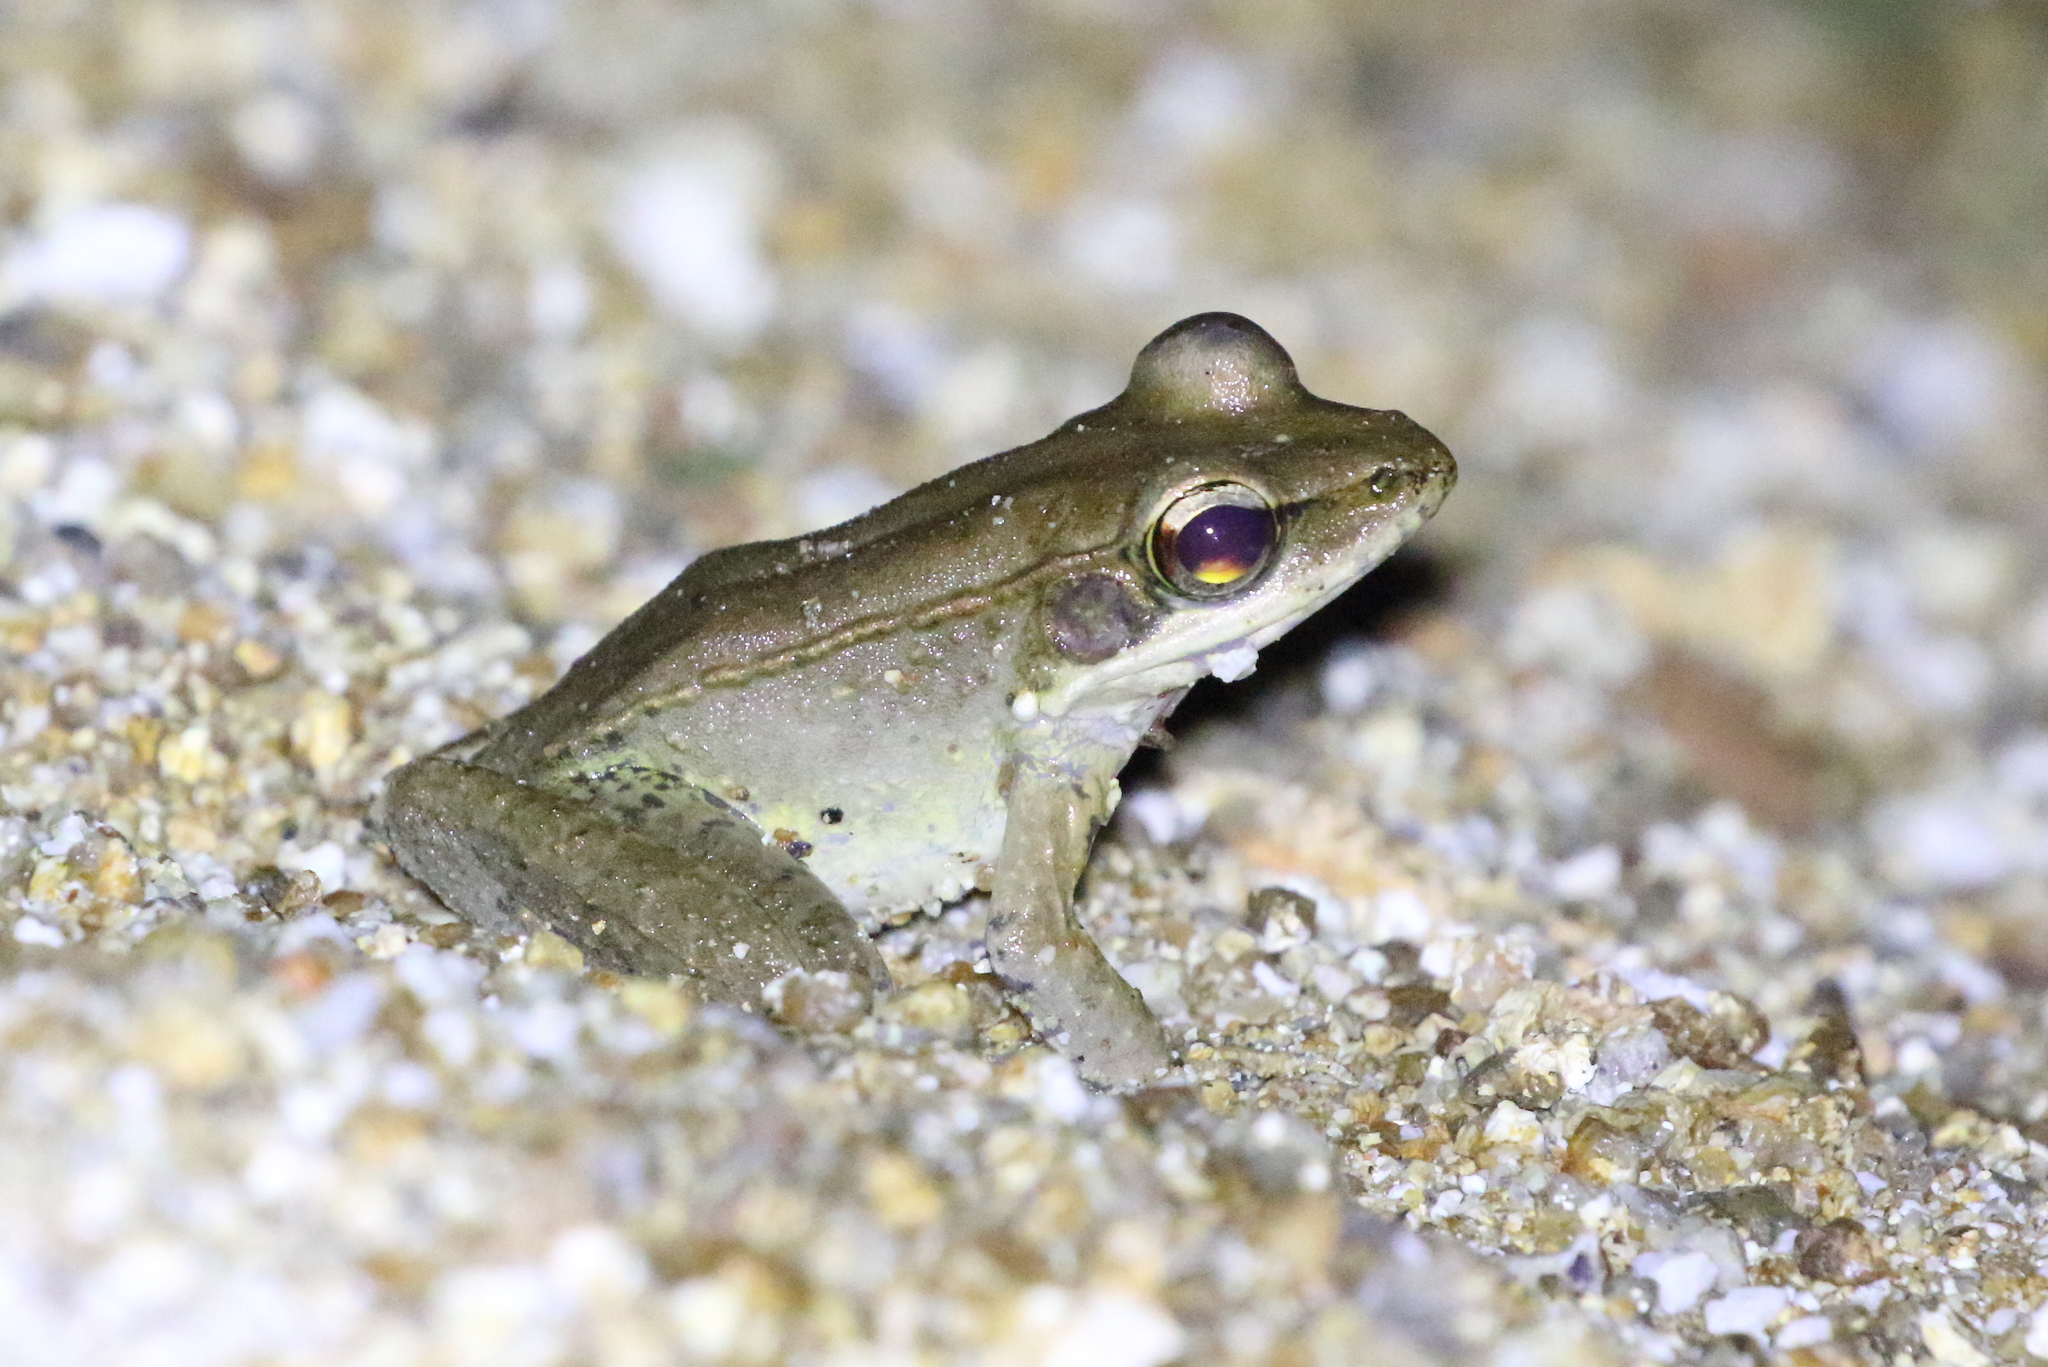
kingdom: Animalia
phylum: Chordata
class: Amphibia
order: Anura
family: Ranidae
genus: Papurana
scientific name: Papurana daemeli
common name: Arhem rana
